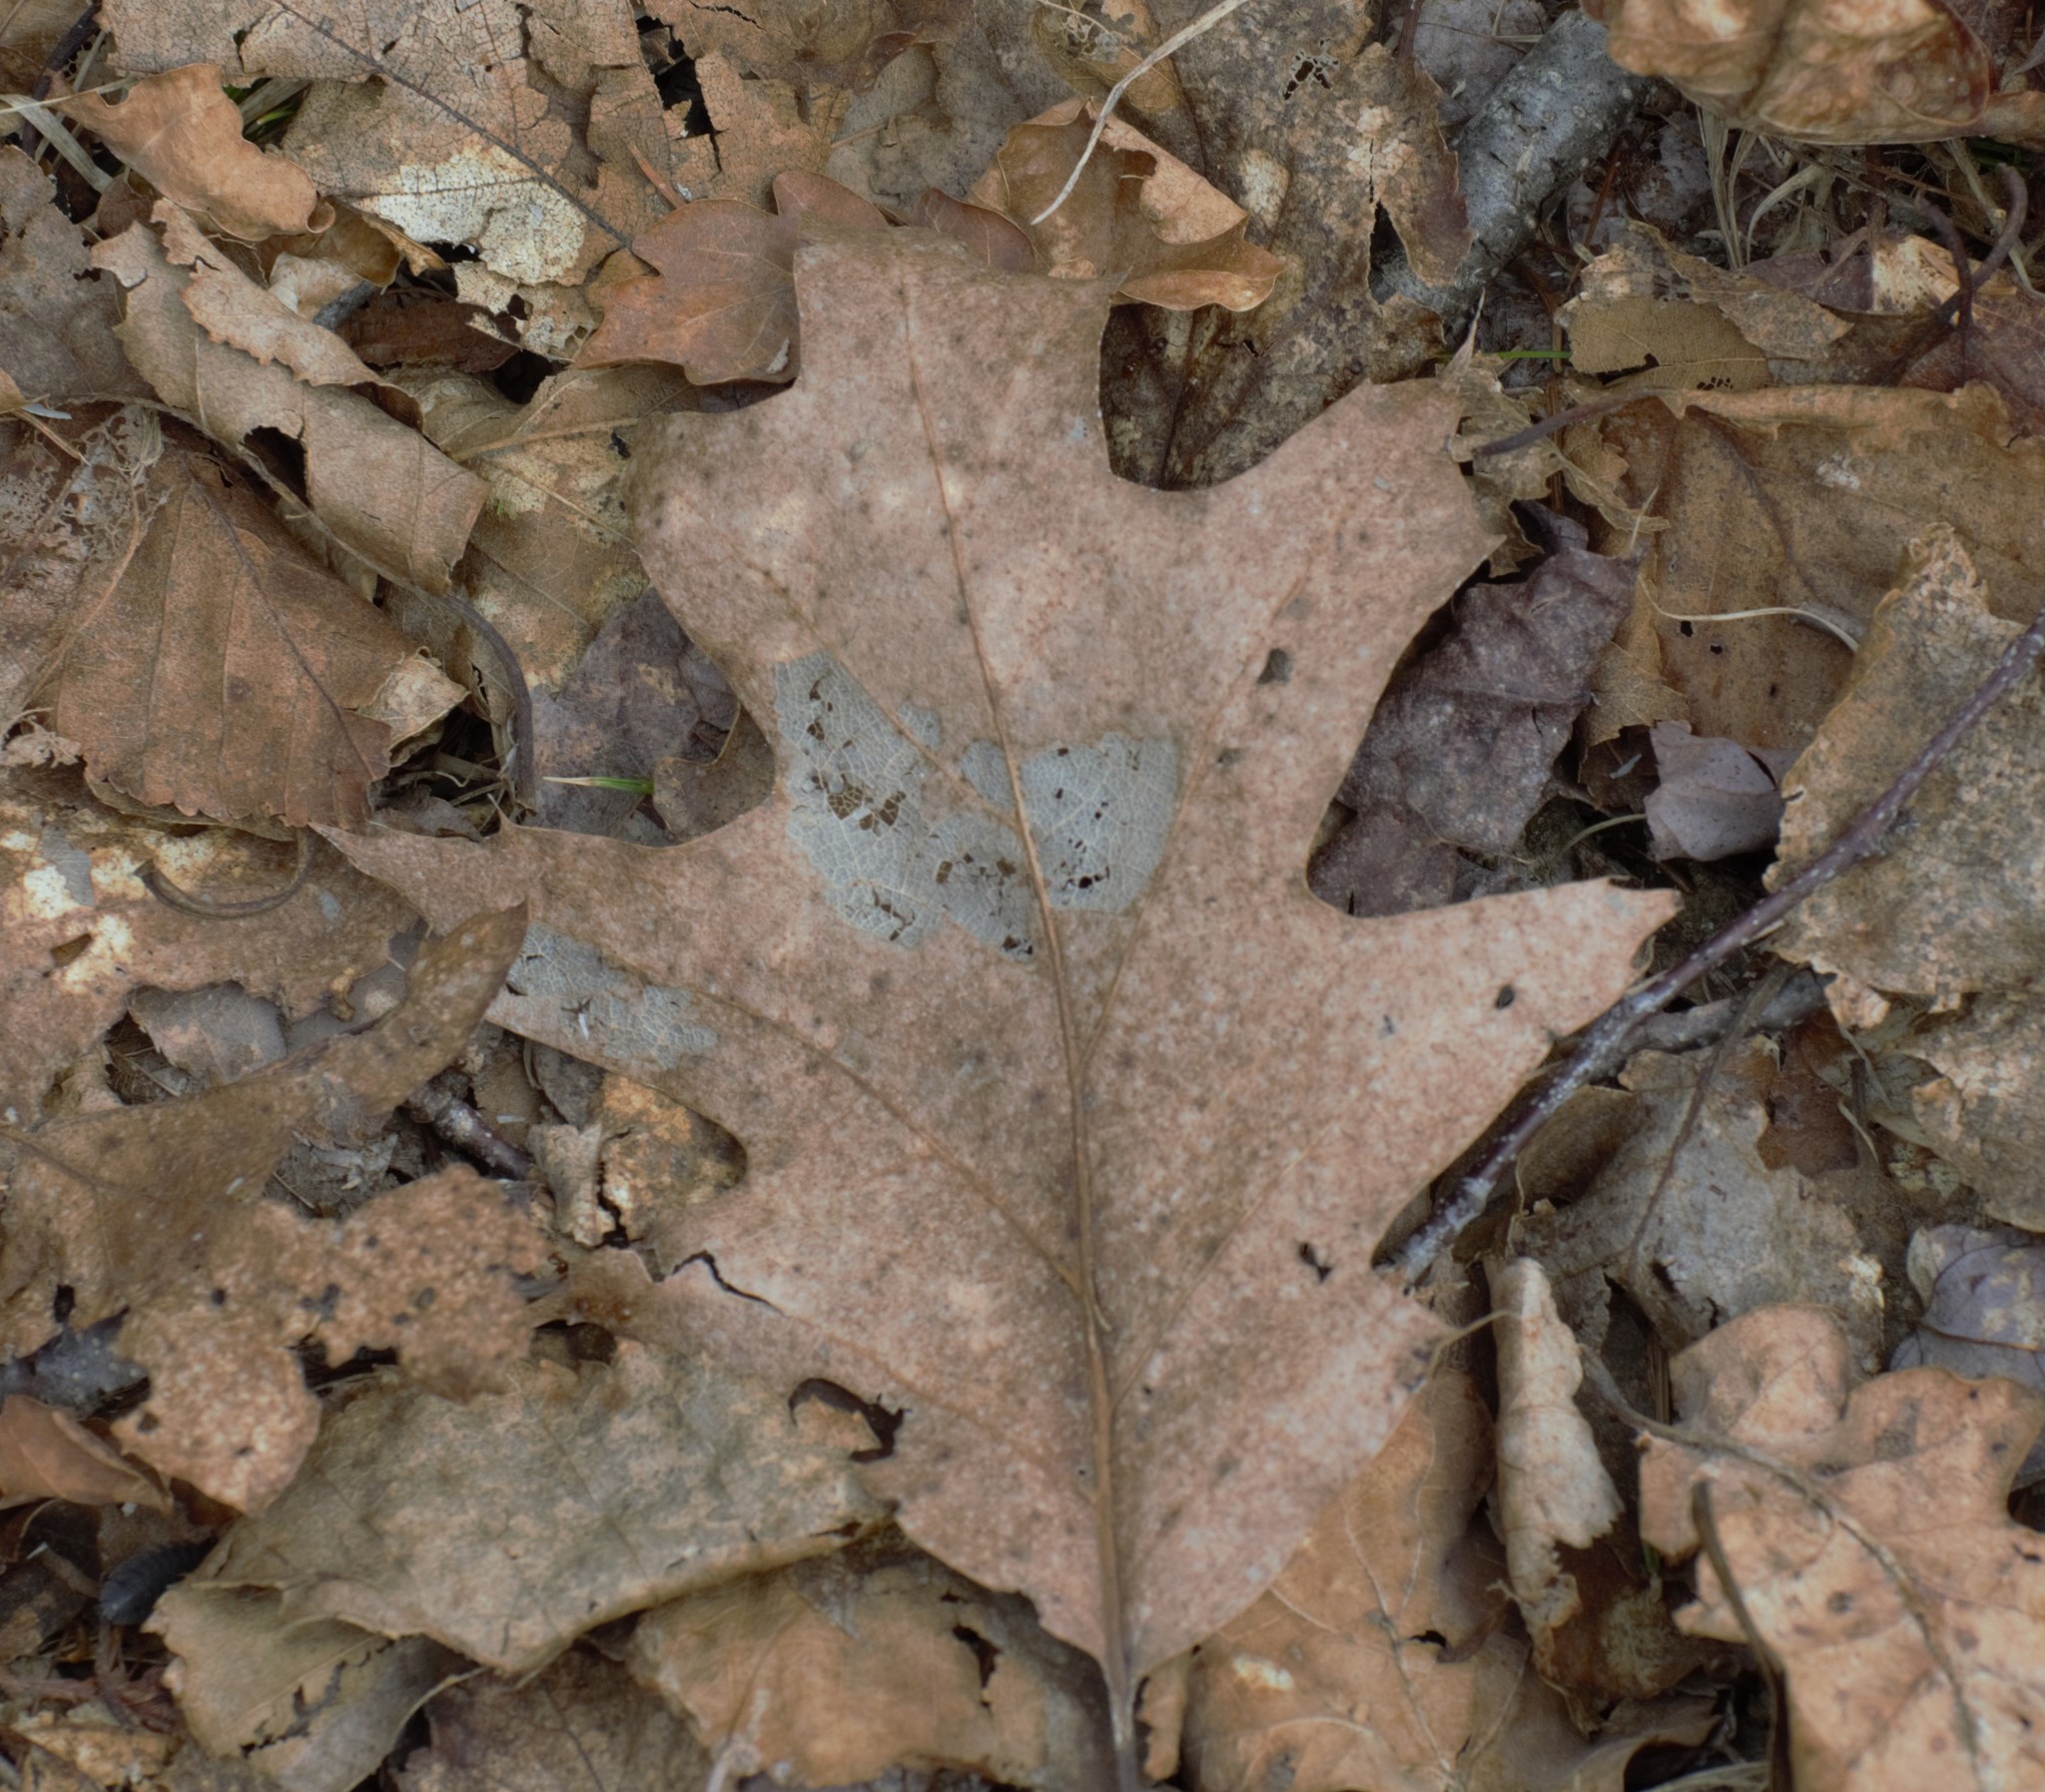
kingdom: Plantae
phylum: Tracheophyta
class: Magnoliopsida
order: Fagales
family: Fagaceae
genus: Quercus
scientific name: Quercus rubra
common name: Red oak
